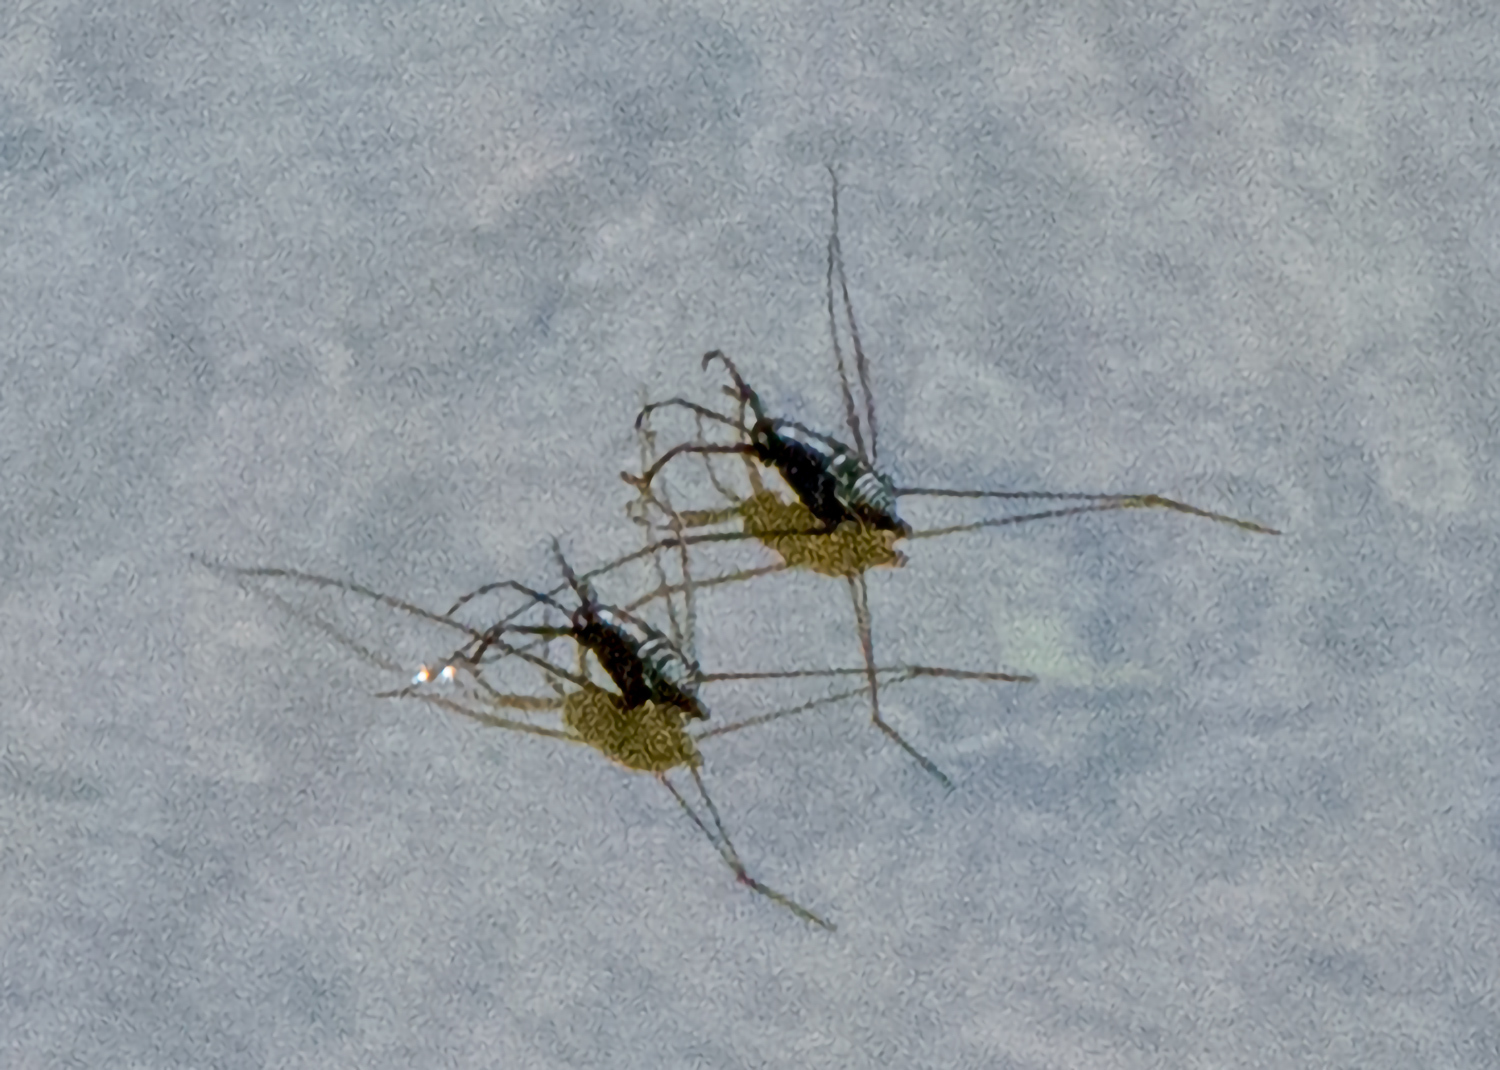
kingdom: Animalia
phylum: Arthropoda
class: Insecta
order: Hemiptera
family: Gerridae
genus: Metrobates
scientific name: Metrobates
